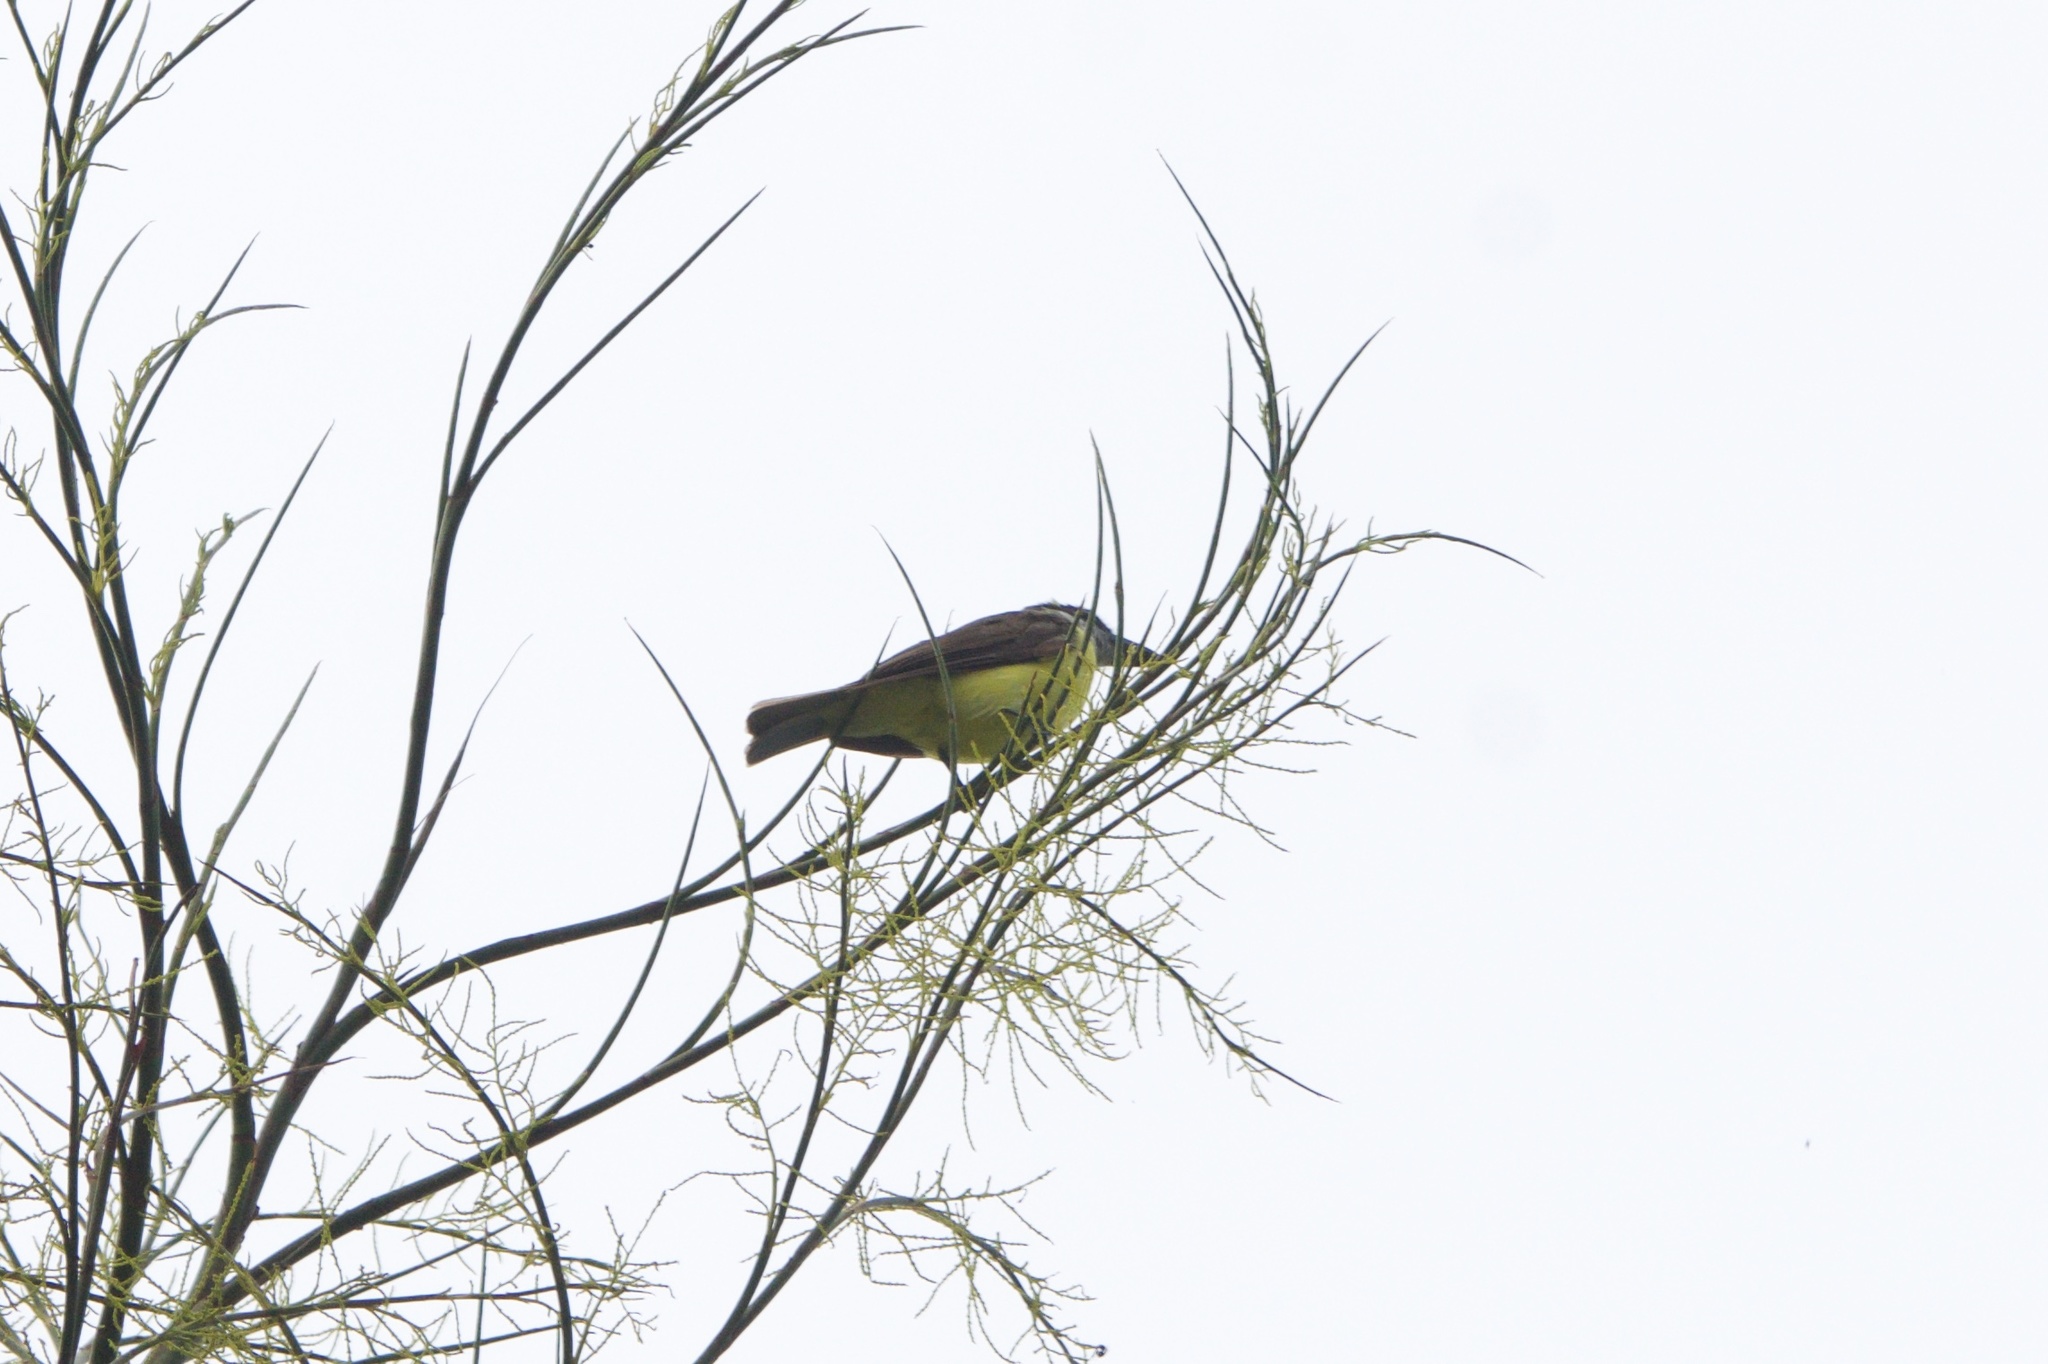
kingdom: Animalia
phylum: Chordata
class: Aves
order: Passeriformes
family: Tyrannidae
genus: Megarynchus
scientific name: Megarynchus pitangua
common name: Boat-billed flycatcher
